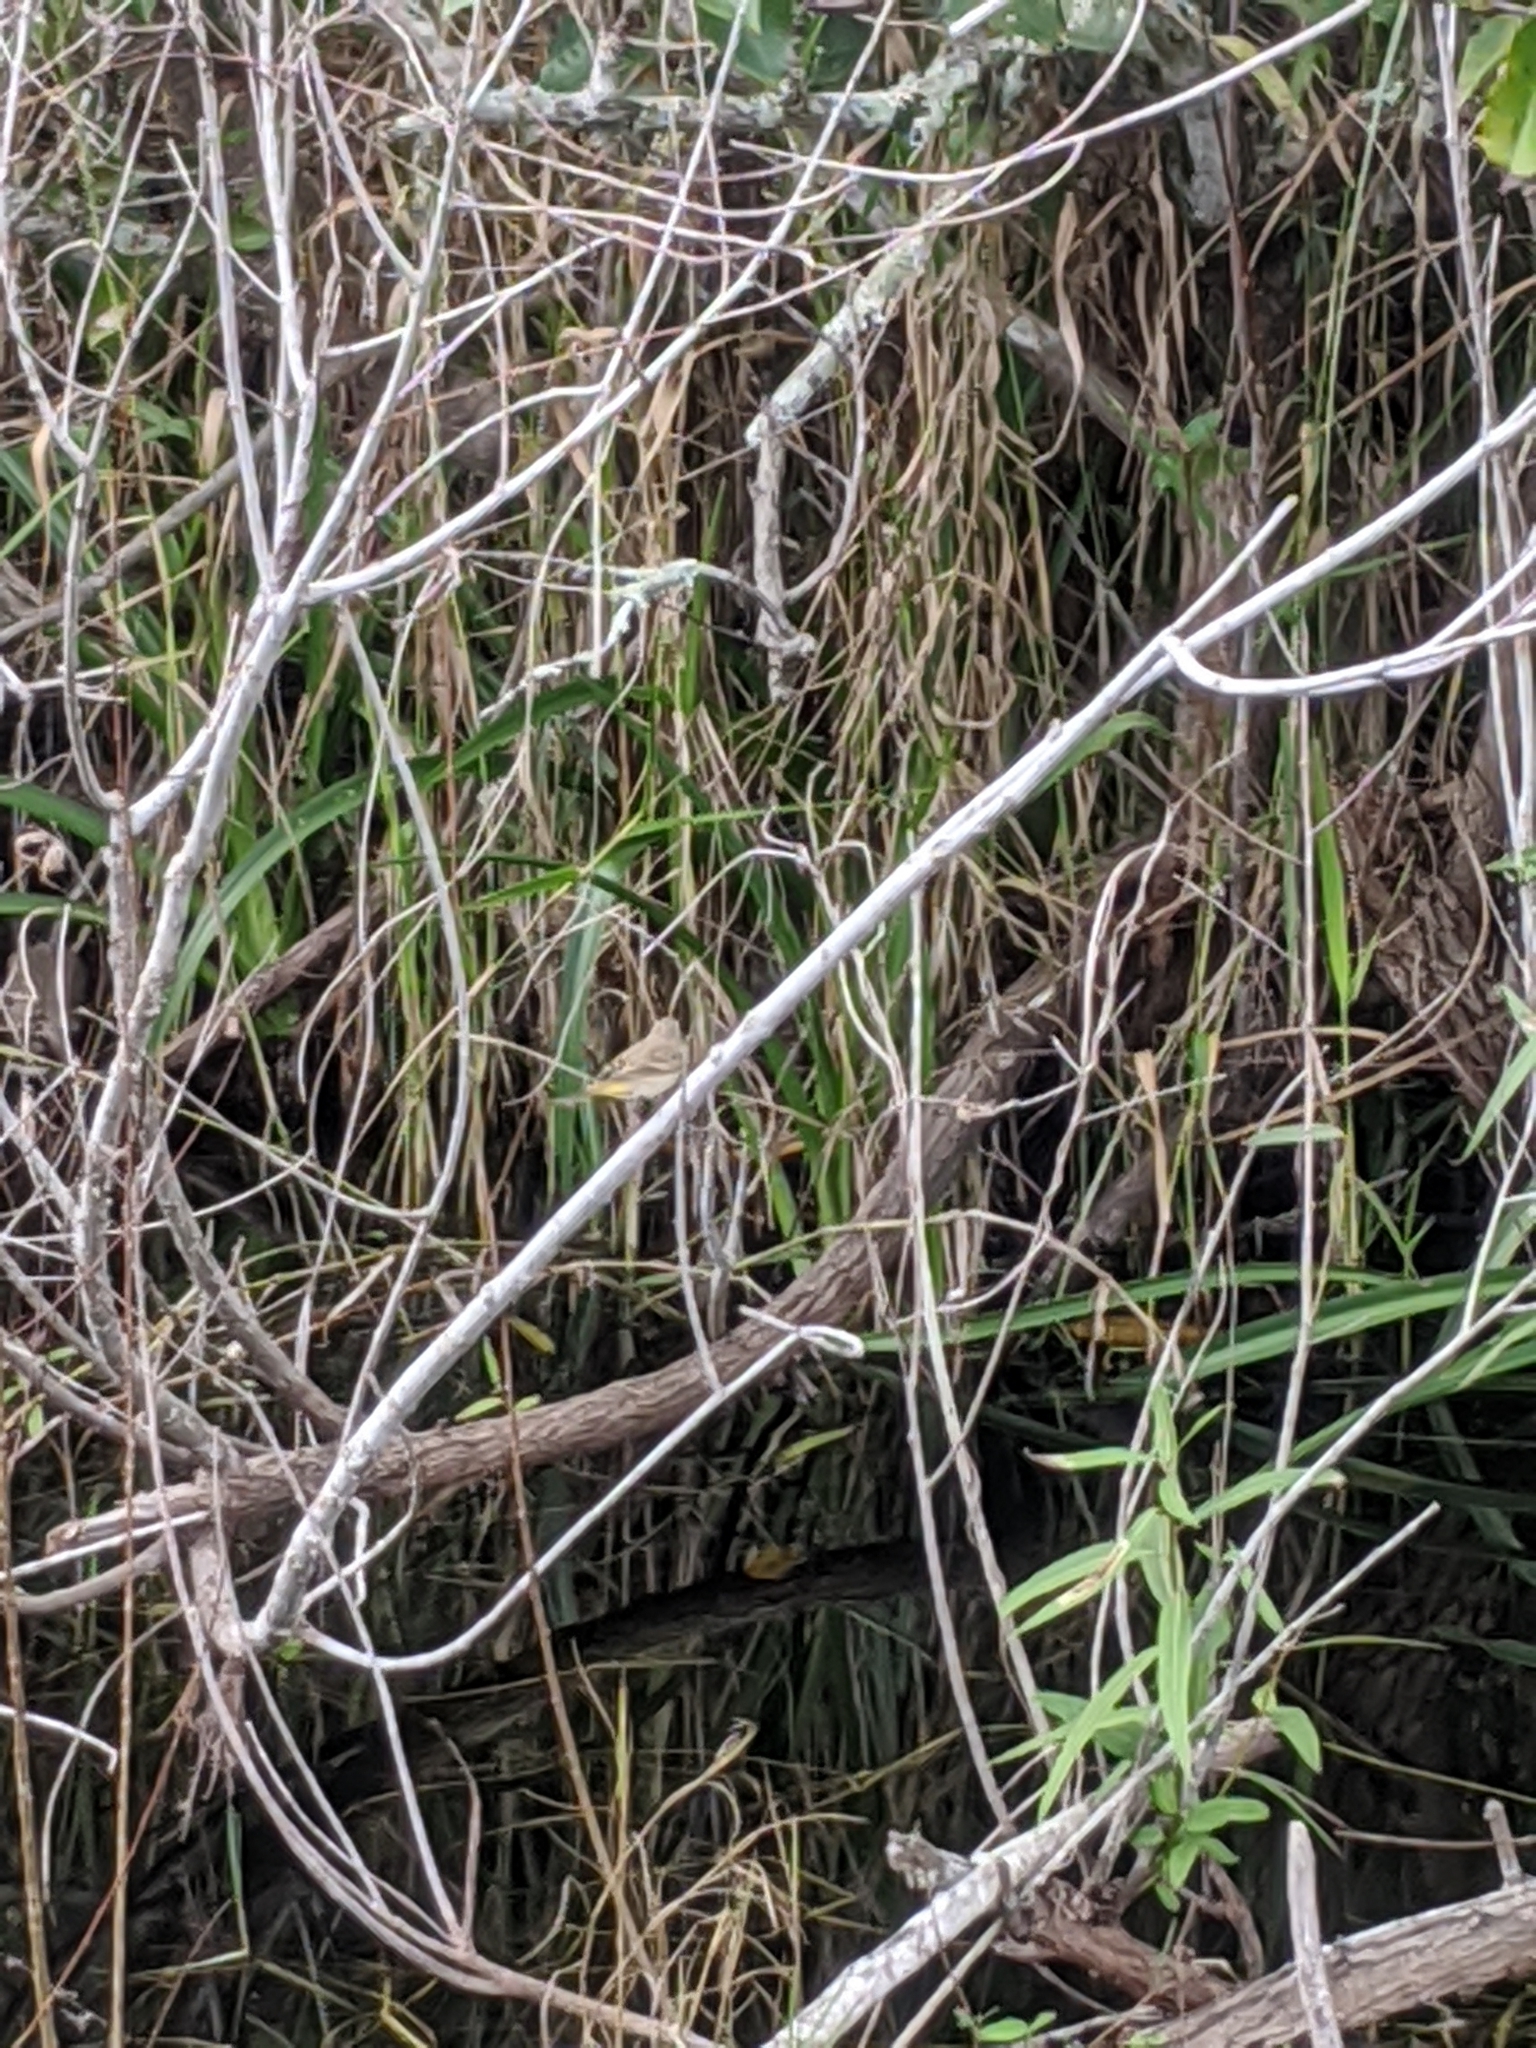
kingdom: Animalia
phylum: Chordata
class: Aves
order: Passeriformes
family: Parulidae
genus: Setophaga
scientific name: Setophaga palmarum
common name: Palm warbler
